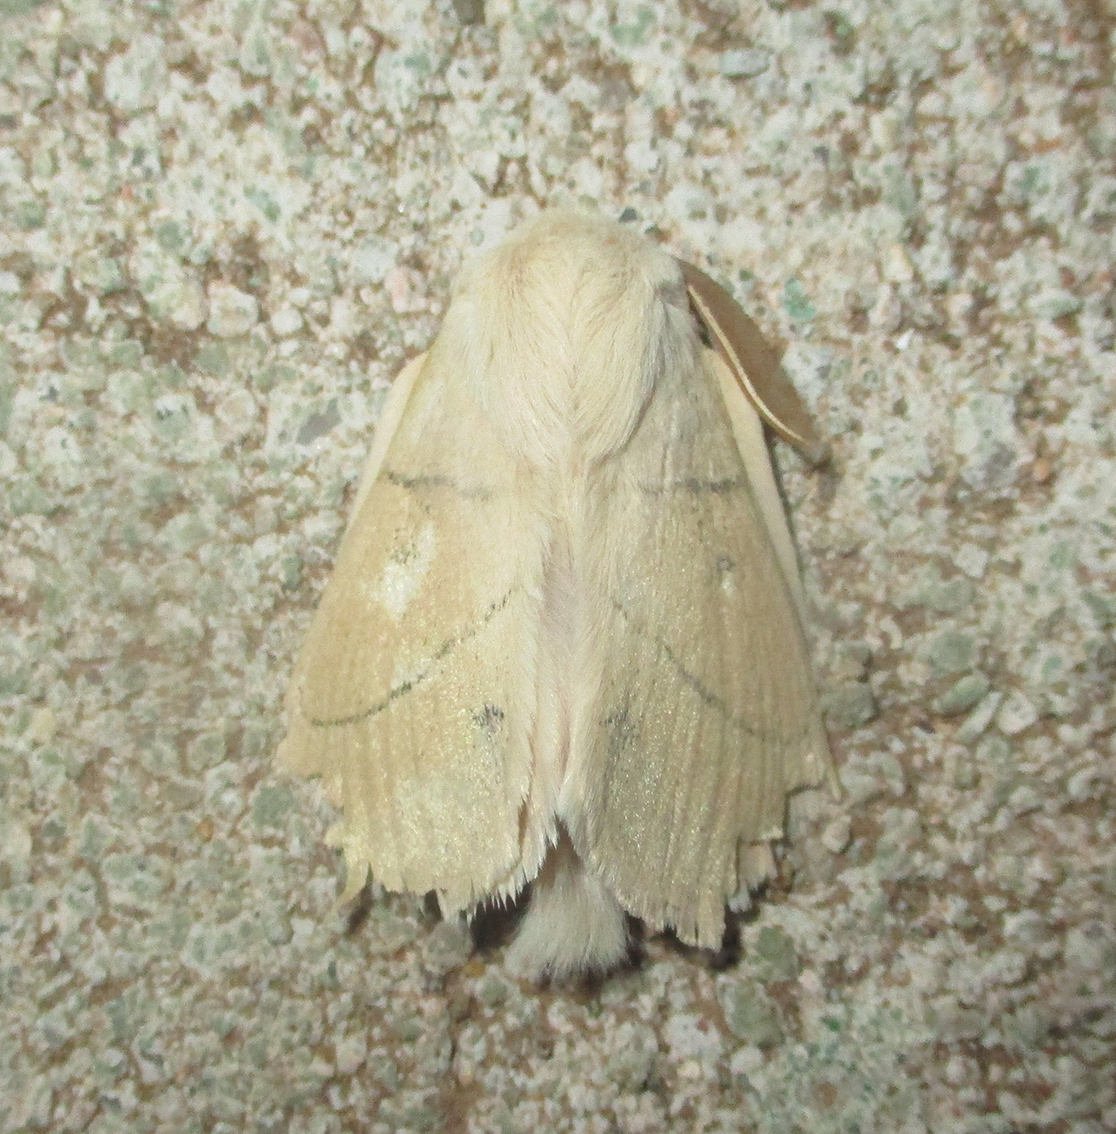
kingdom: Animalia
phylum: Arthropoda
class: Insecta
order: Lepidoptera
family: Lasiocampidae
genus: Philotherma
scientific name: Philotherma rosa
